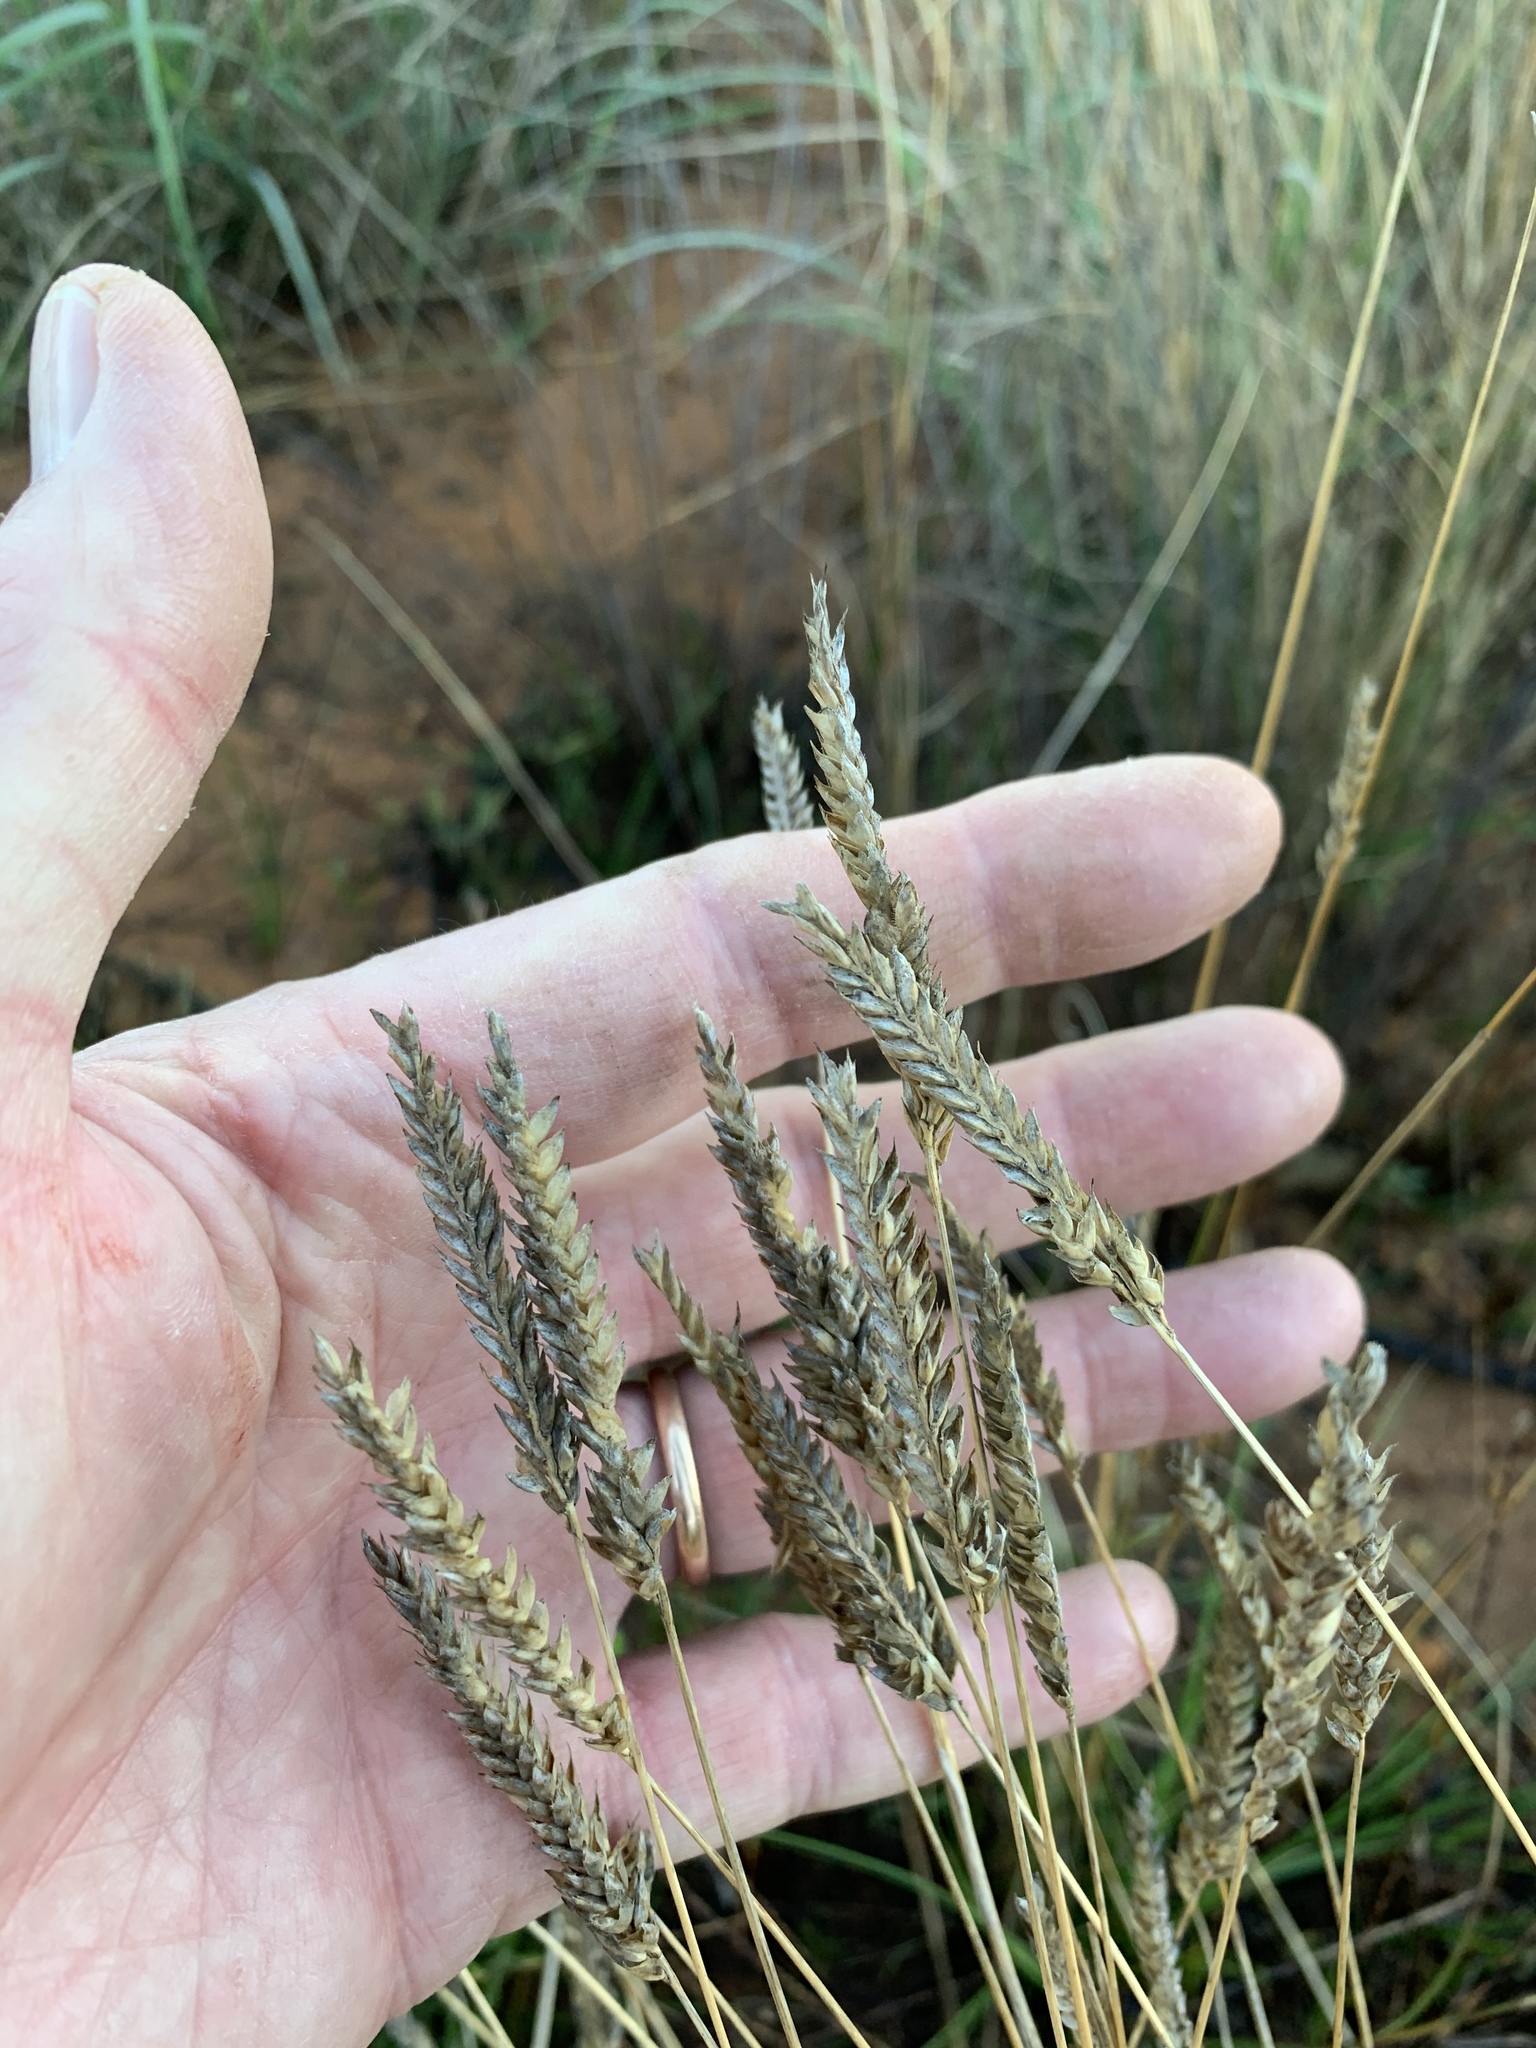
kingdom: Plantae
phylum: Tracheophyta
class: Liliopsida
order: Poales
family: Poaceae
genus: Tribolium
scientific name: Tribolium uniolae
